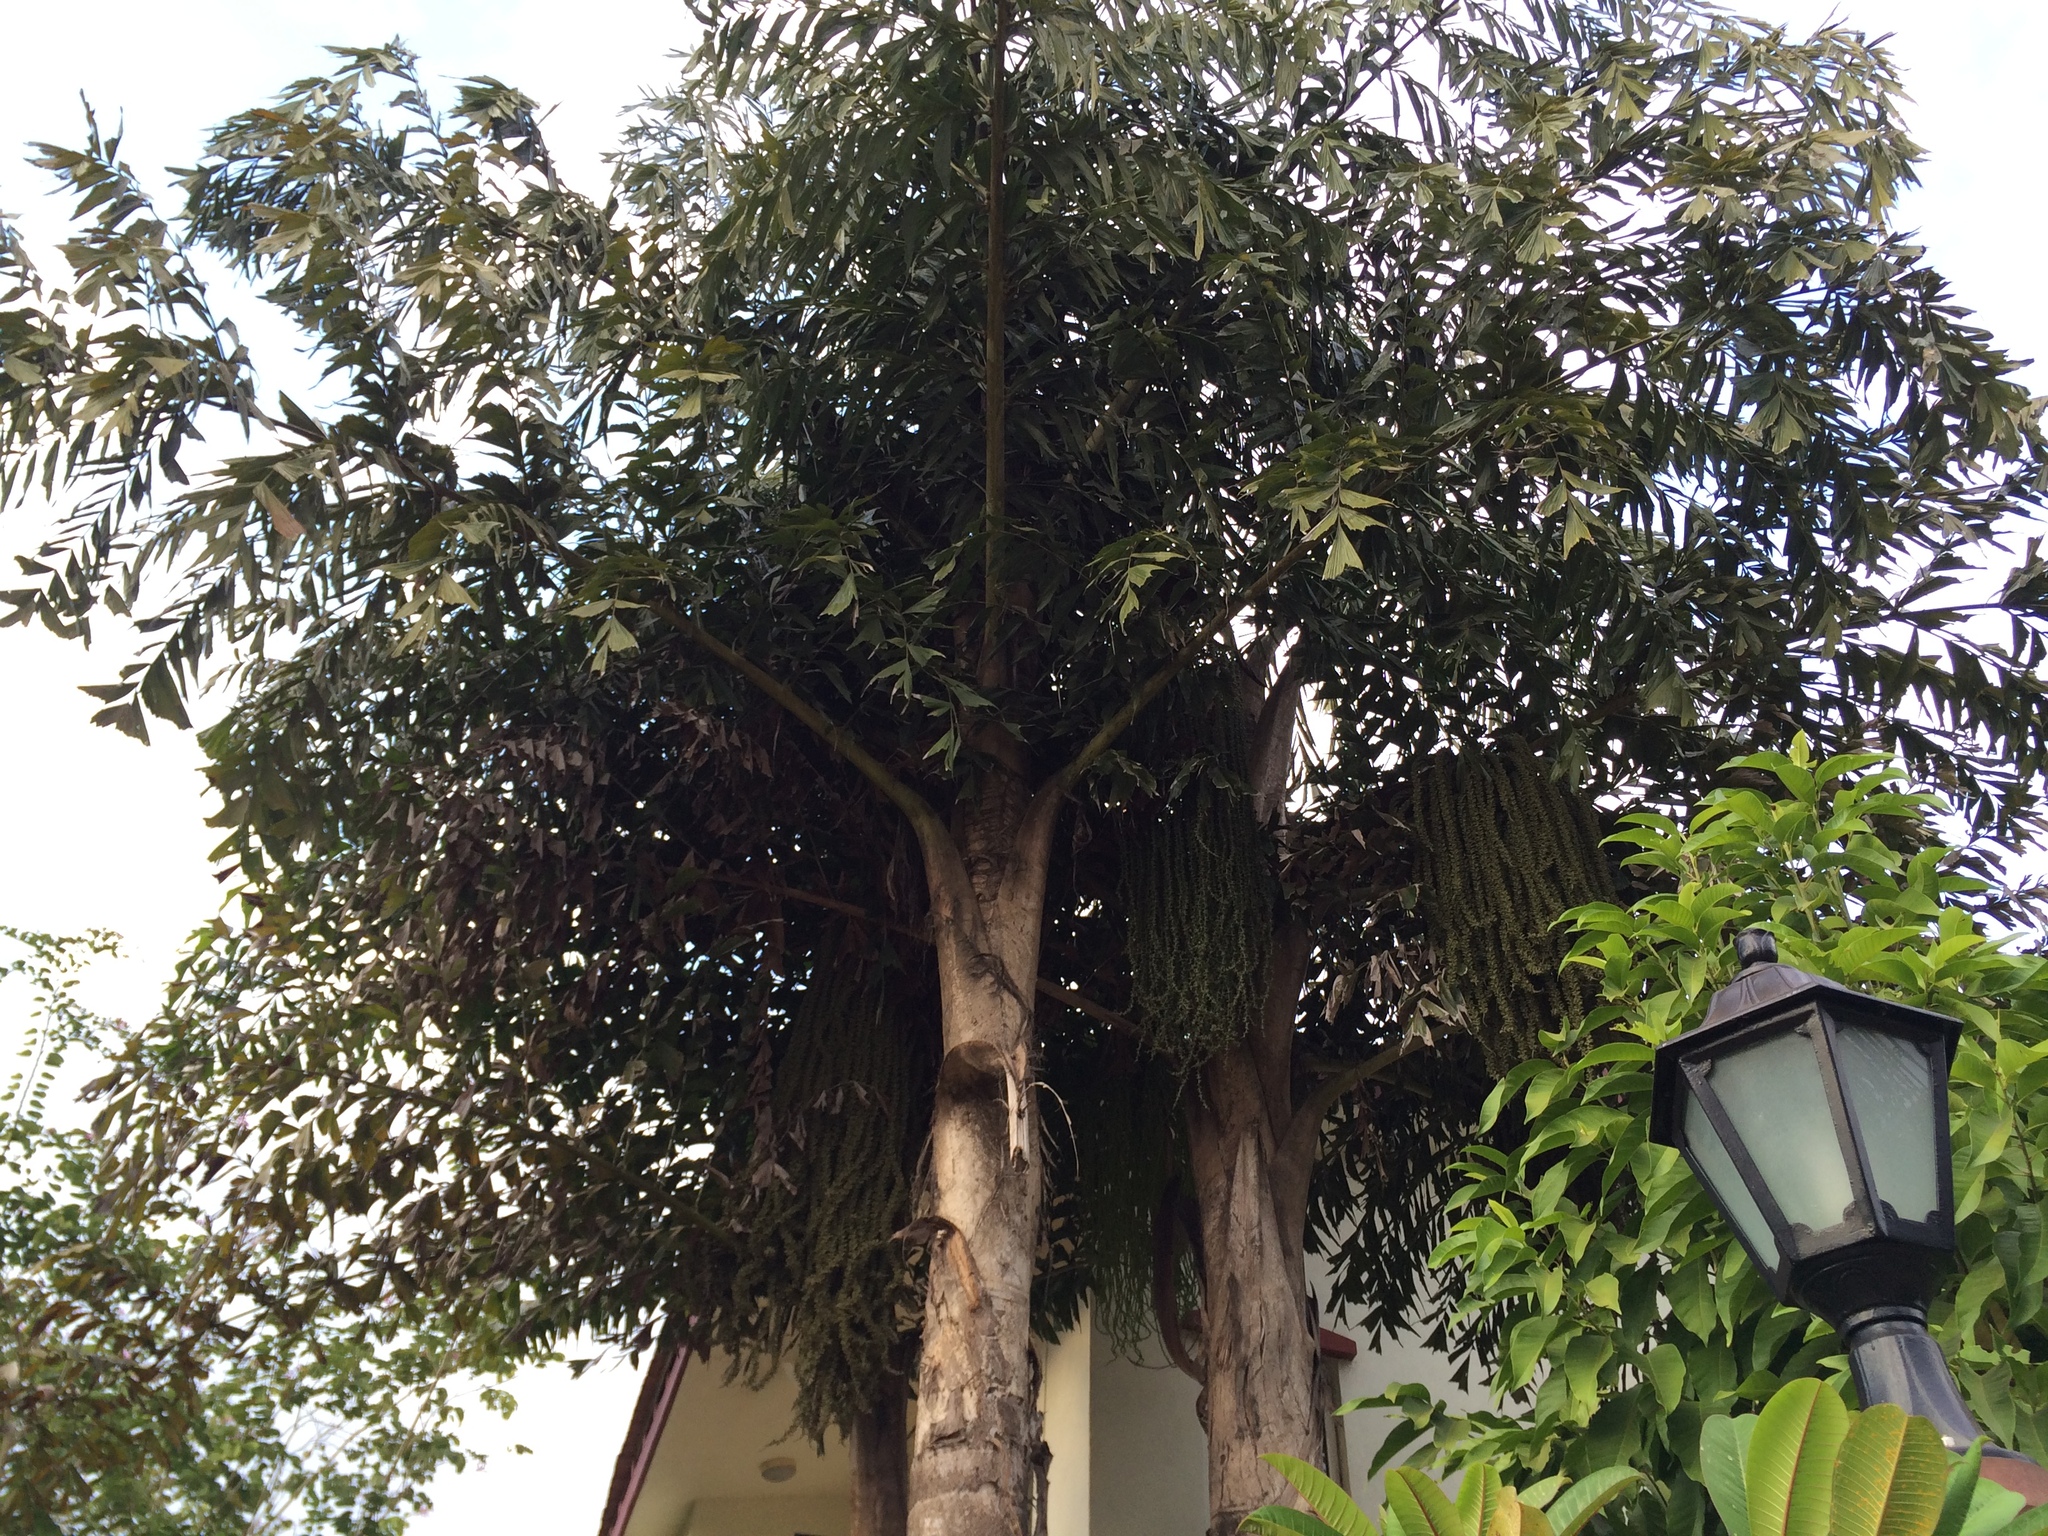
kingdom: Plantae
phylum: Tracheophyta
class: Liliopsida
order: Arecales
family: Arecaceae
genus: Caryota
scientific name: Caryota urens
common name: Jaggery palm
